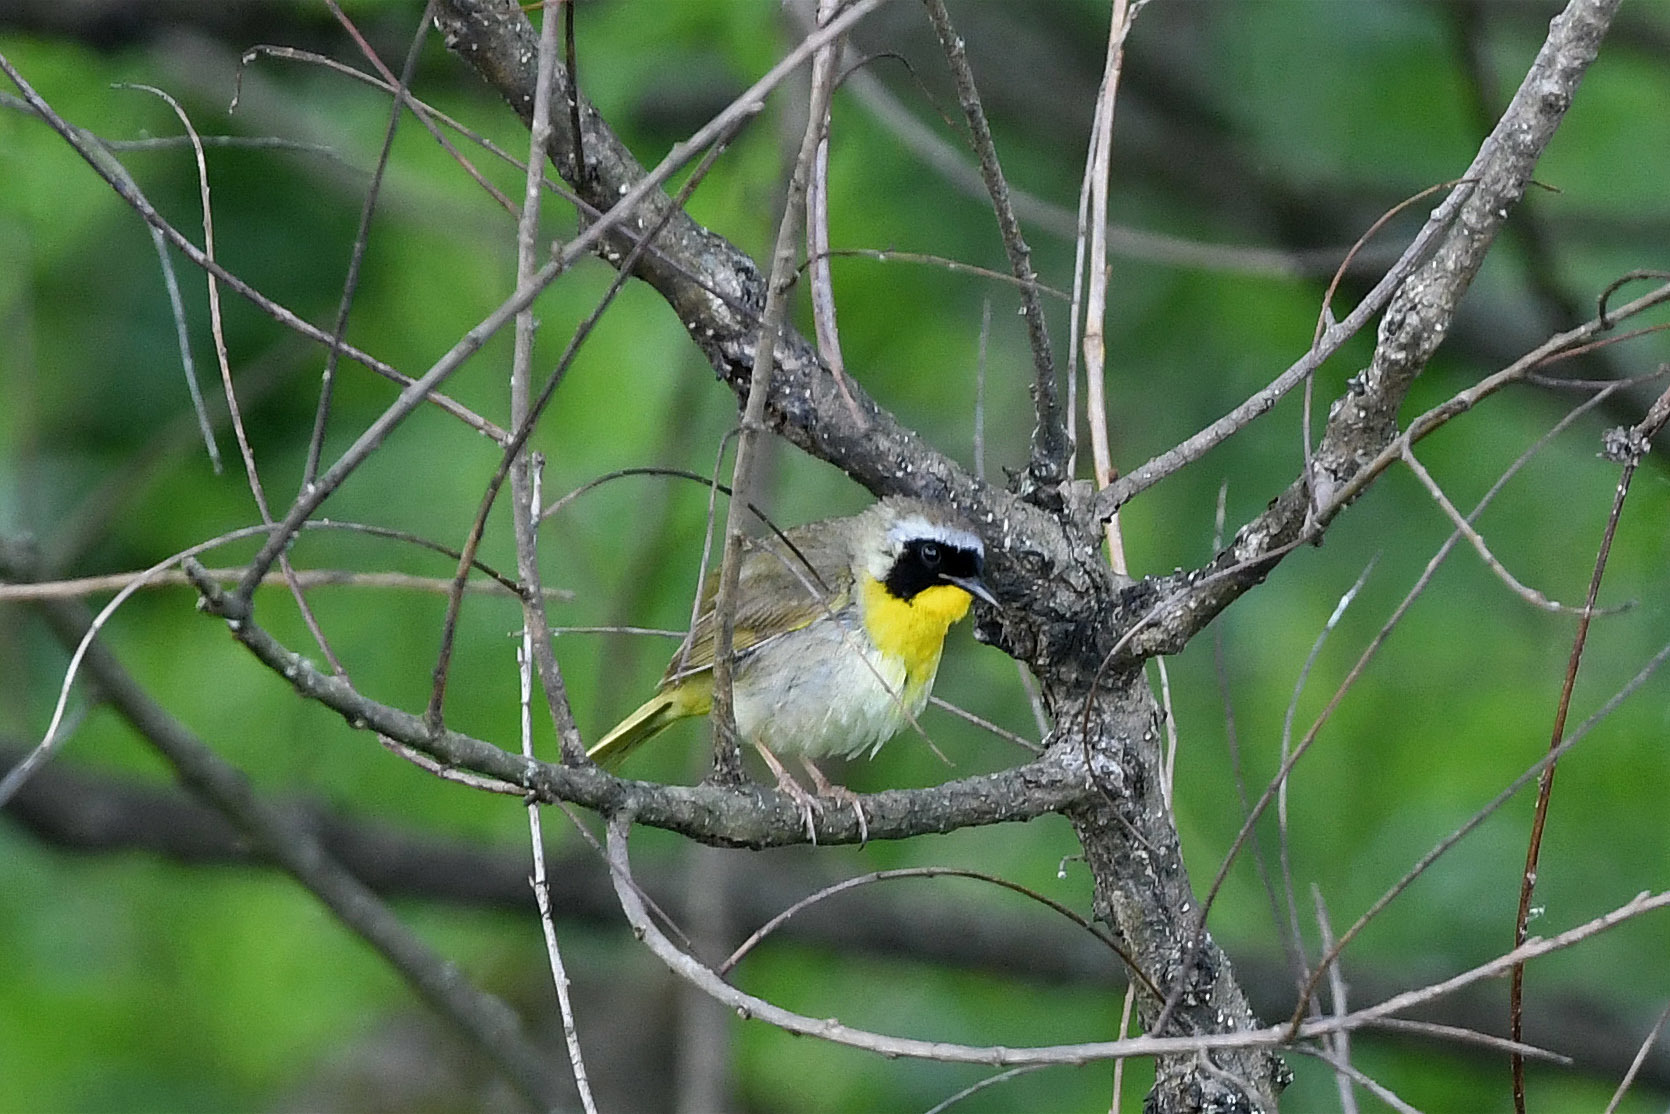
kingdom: Animalia
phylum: Chordata
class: Aves
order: Passeriformes
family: Parulidae
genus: Geothlypis
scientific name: Geothlypis trichas
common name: Common yellowthroat
